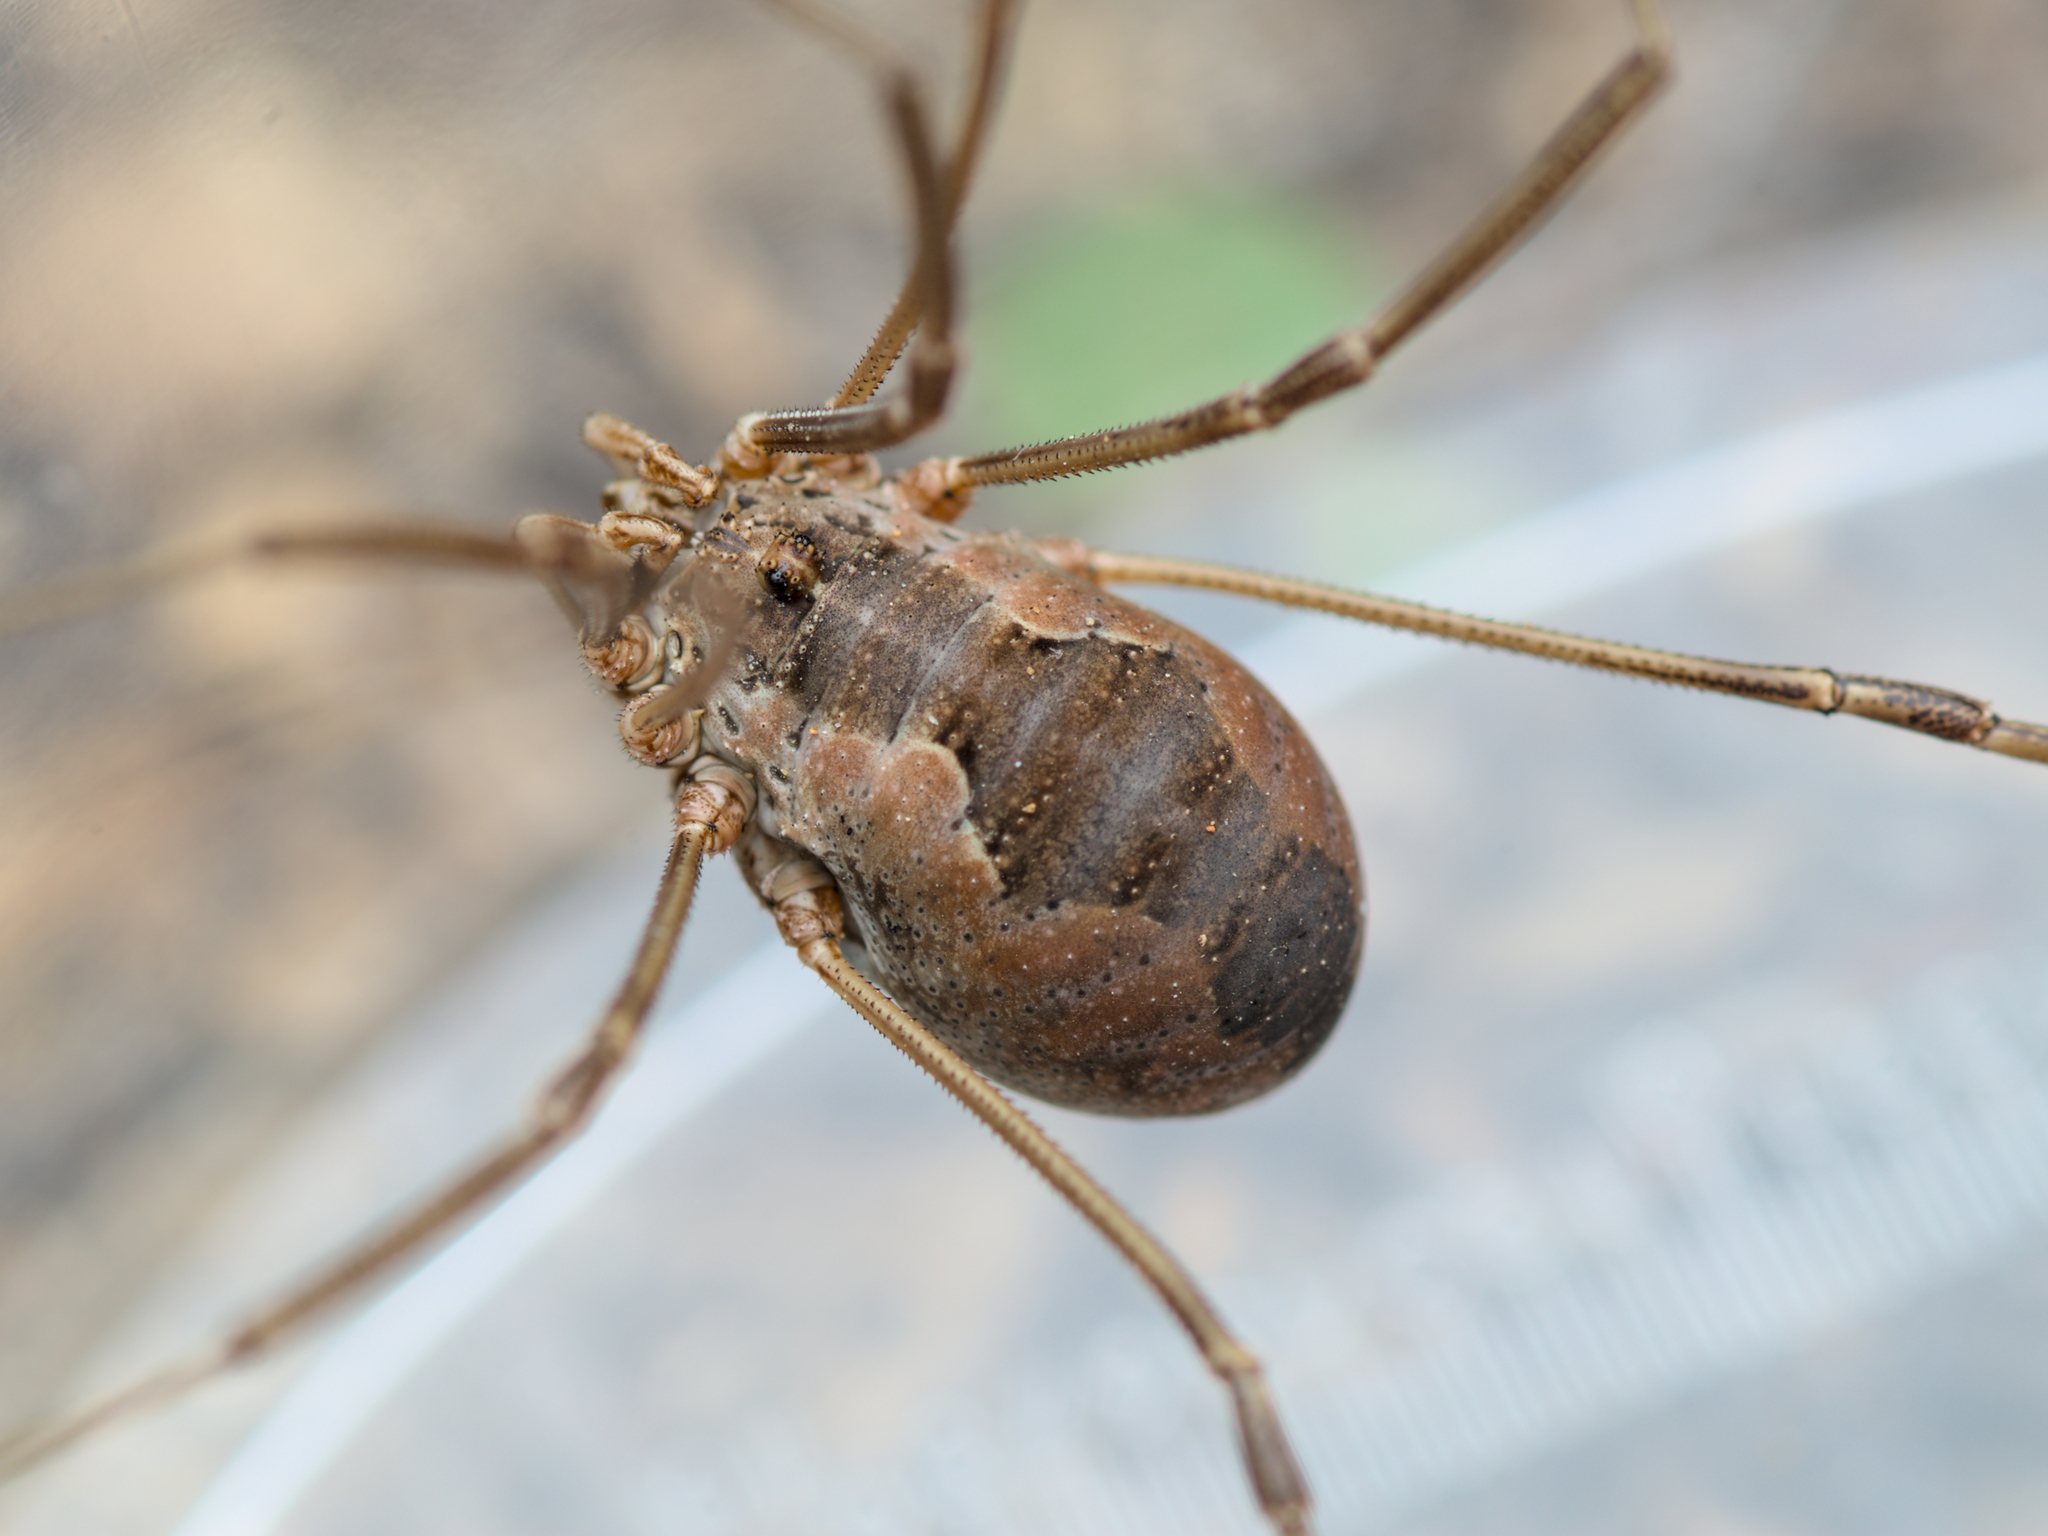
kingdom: Animalia
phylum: Arthropoda
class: Arachnida
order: Opiliones
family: Phalangiidae
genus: Phalangium
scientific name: Phalangium opilio
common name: Daddy longleg
